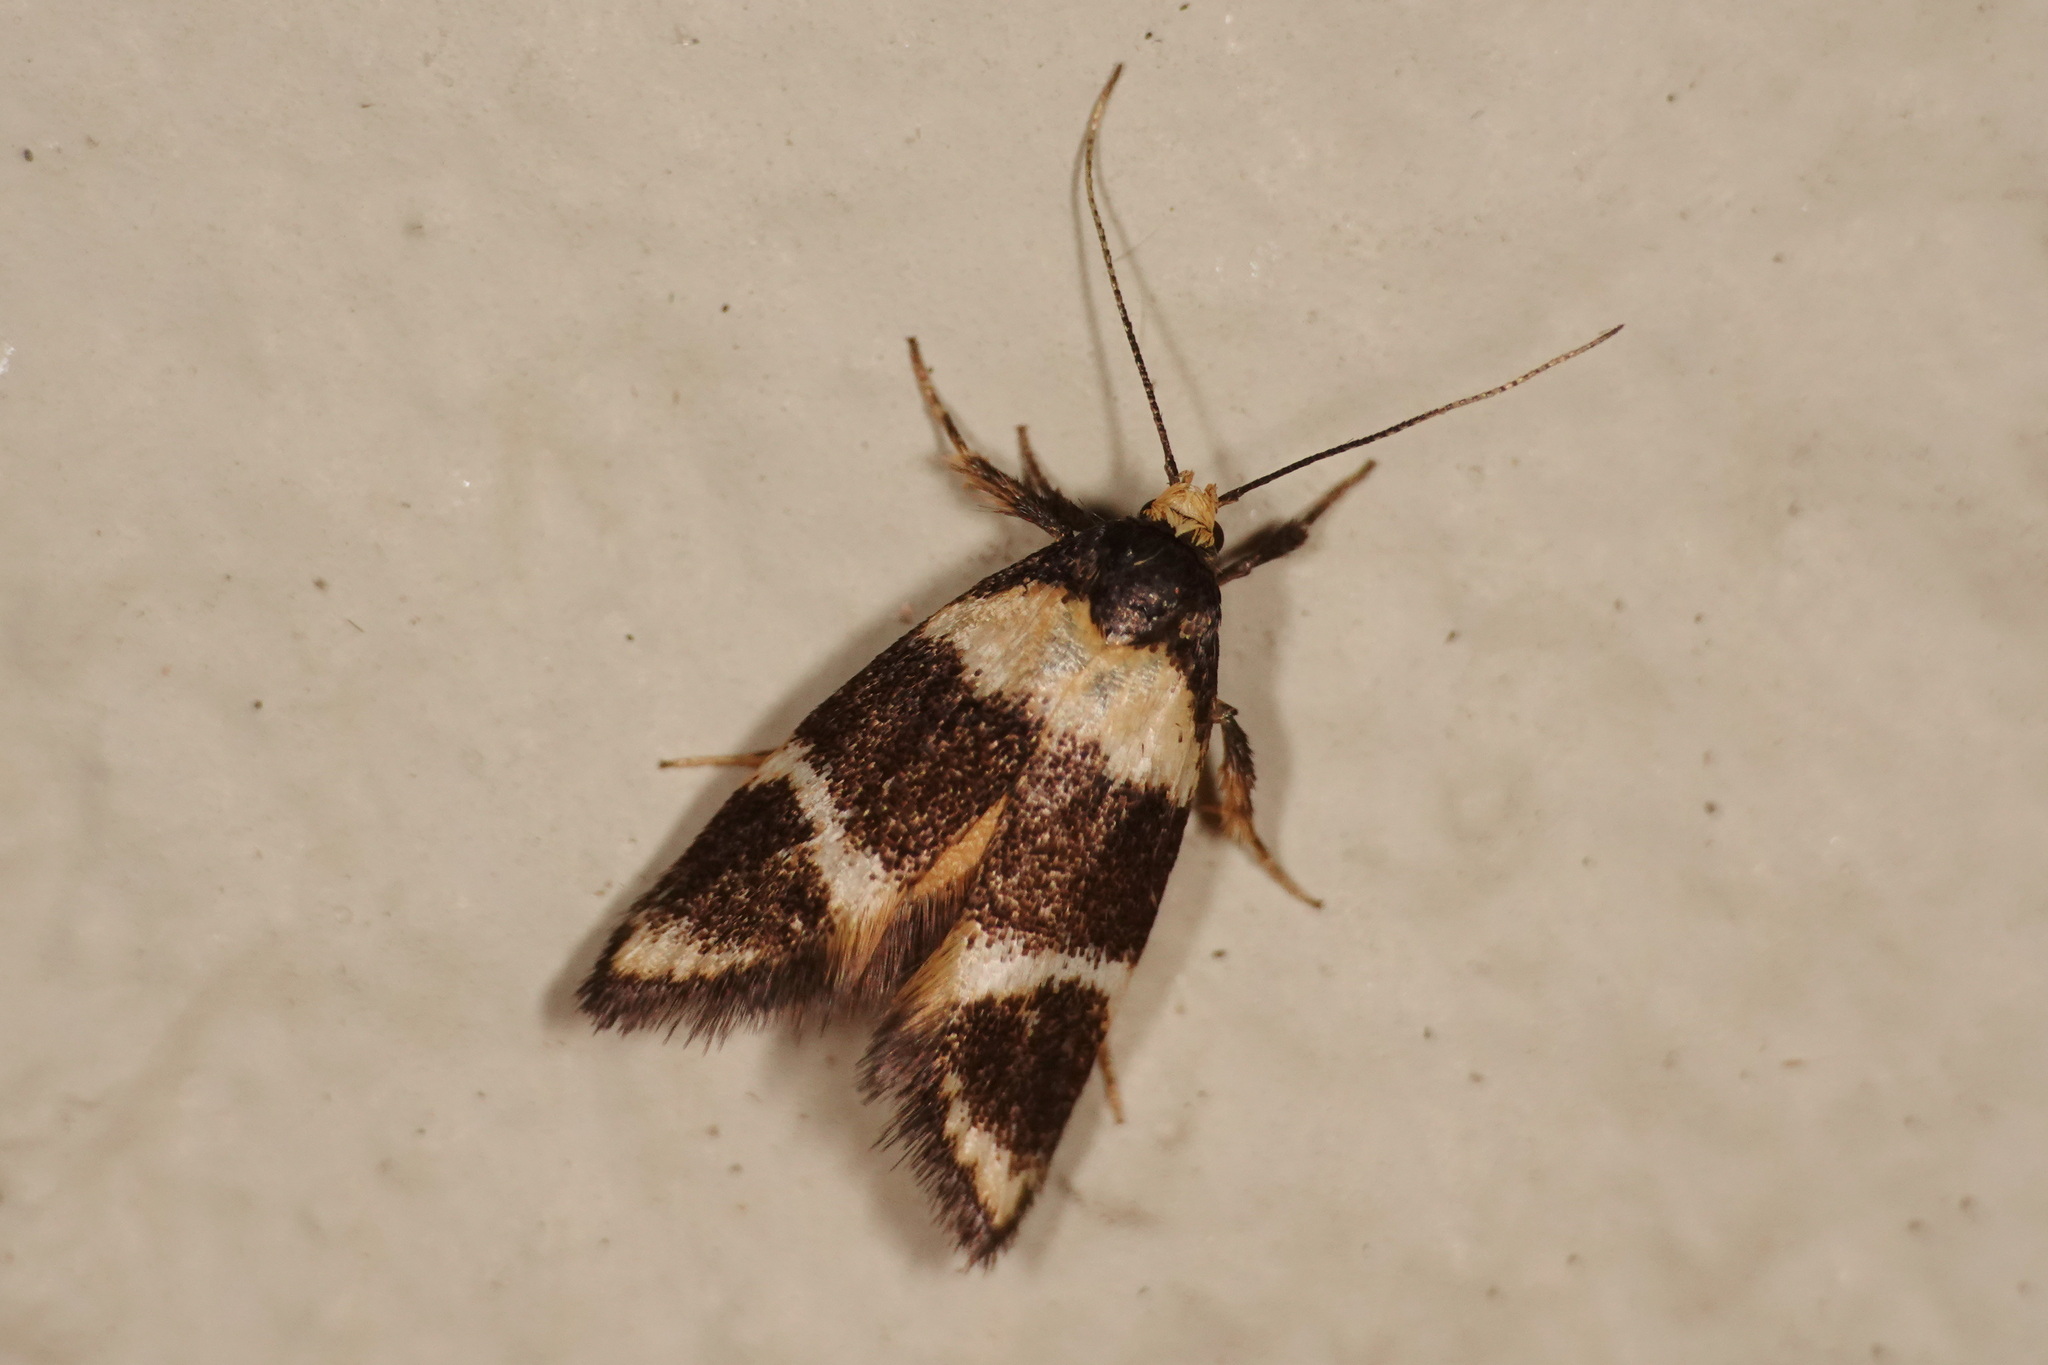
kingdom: Animalia
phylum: Arthropoda
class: Insecta
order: Lepidoptera
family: Oecophoridae
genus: Cosmaresta
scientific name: Cosmaresta callichrysa
